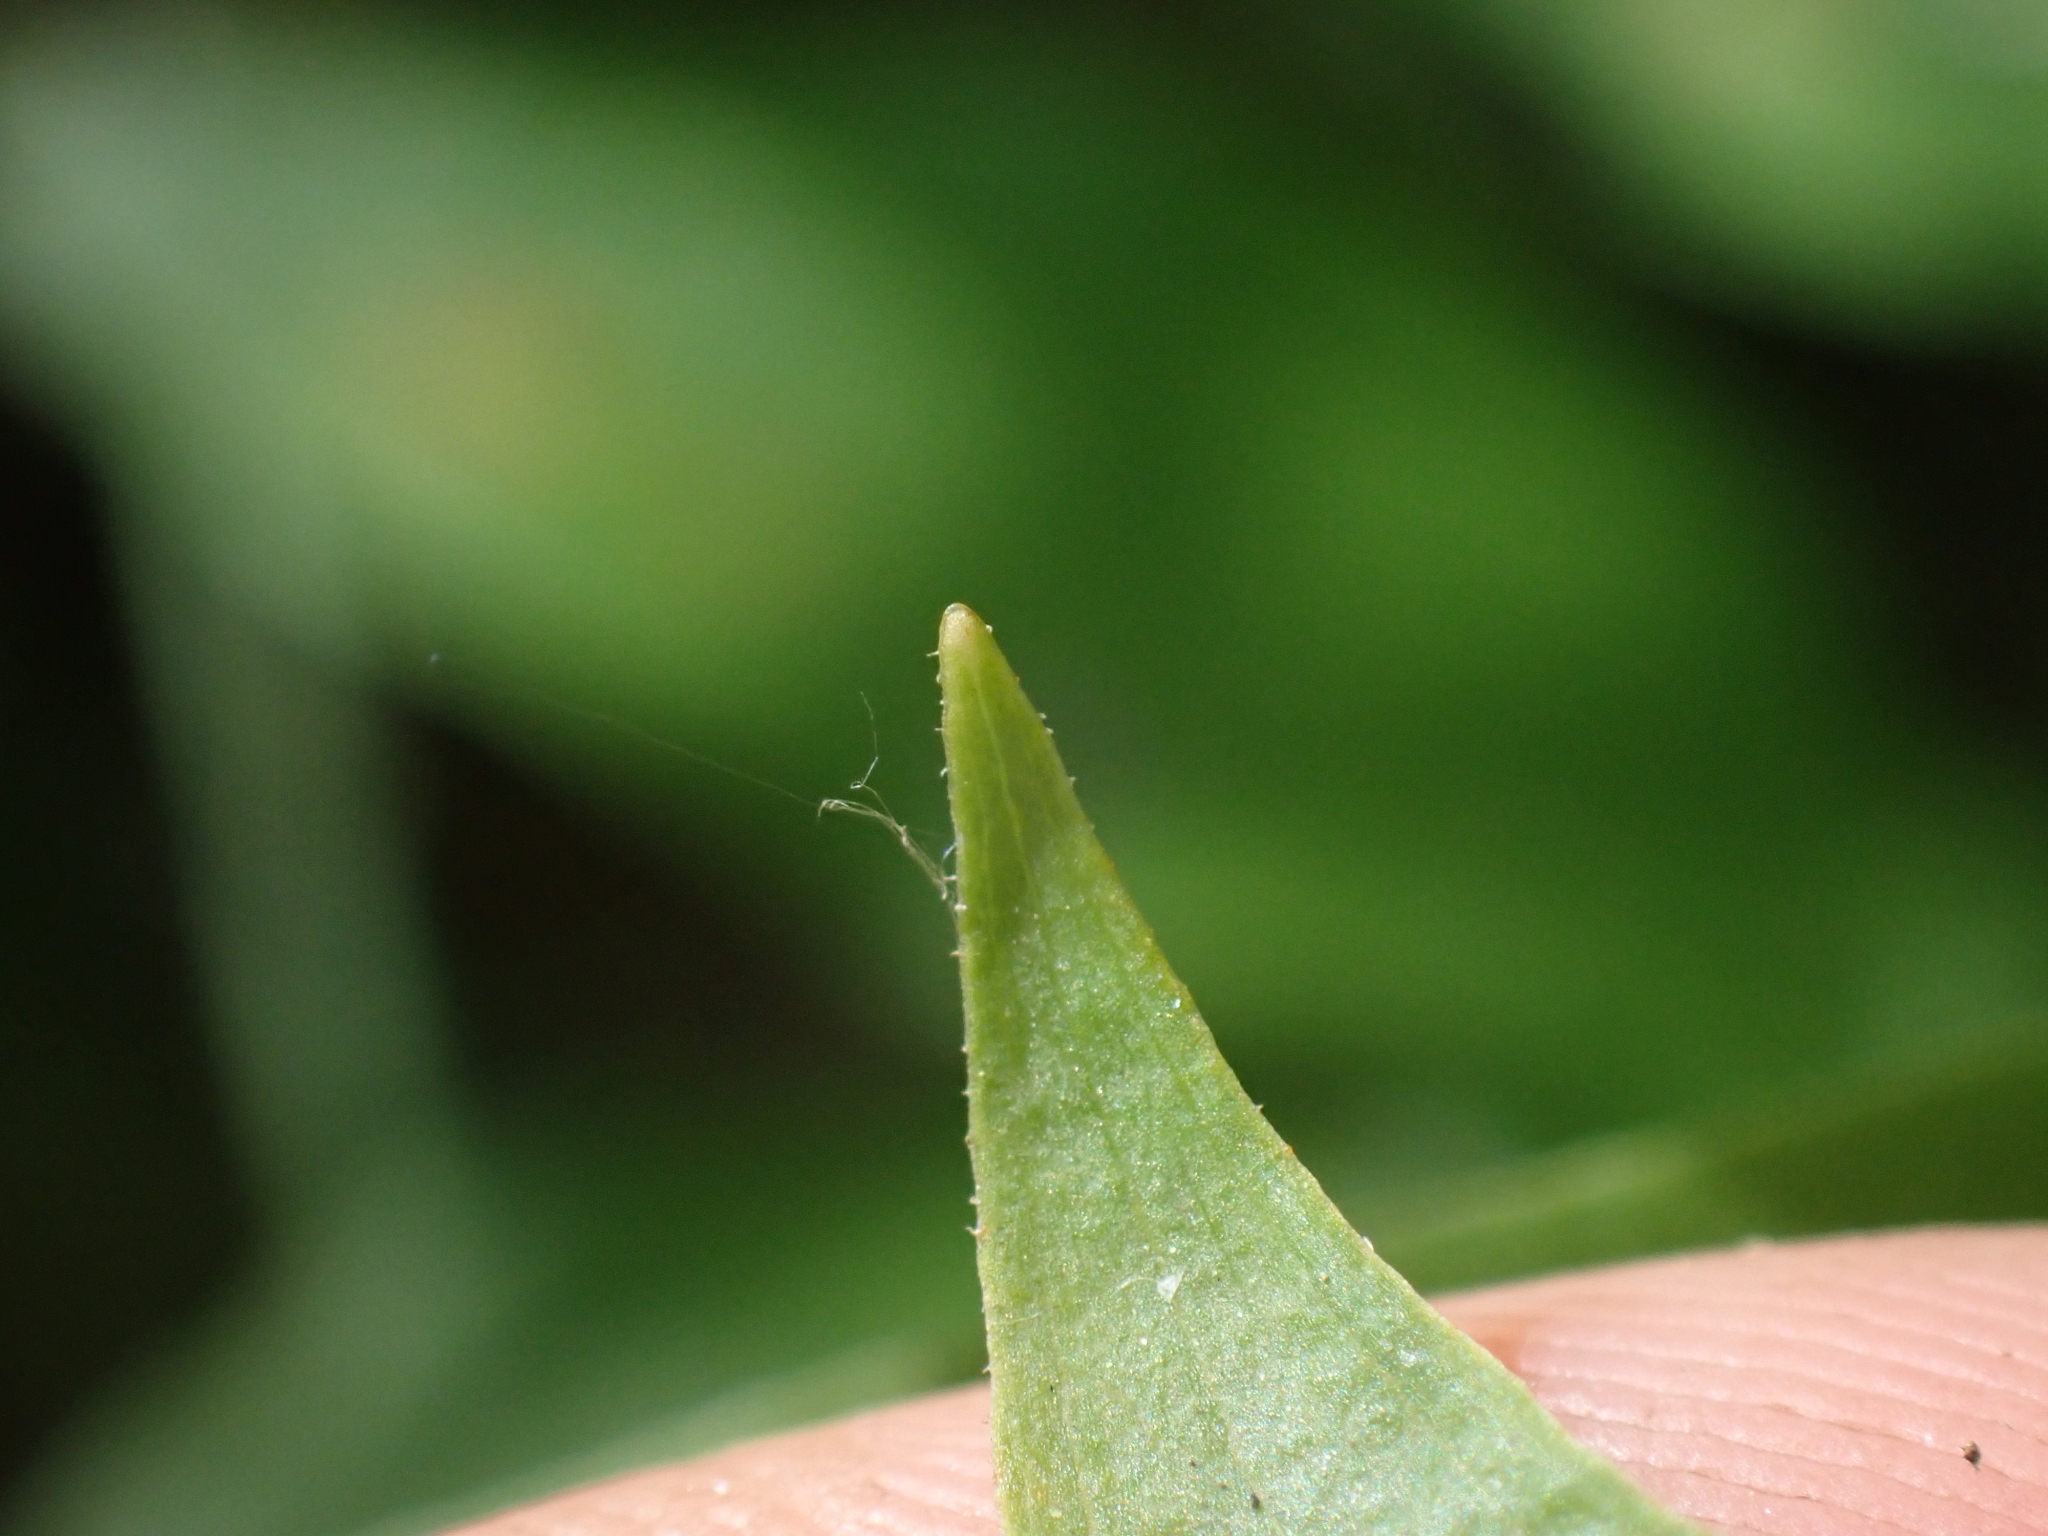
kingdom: Plantae
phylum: Tracheophyta
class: Liliopsida
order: Liliales
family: Liliaceae
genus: Prosartes
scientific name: Prosartes trachycarpa
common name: Rough-fruit fairy-bells
